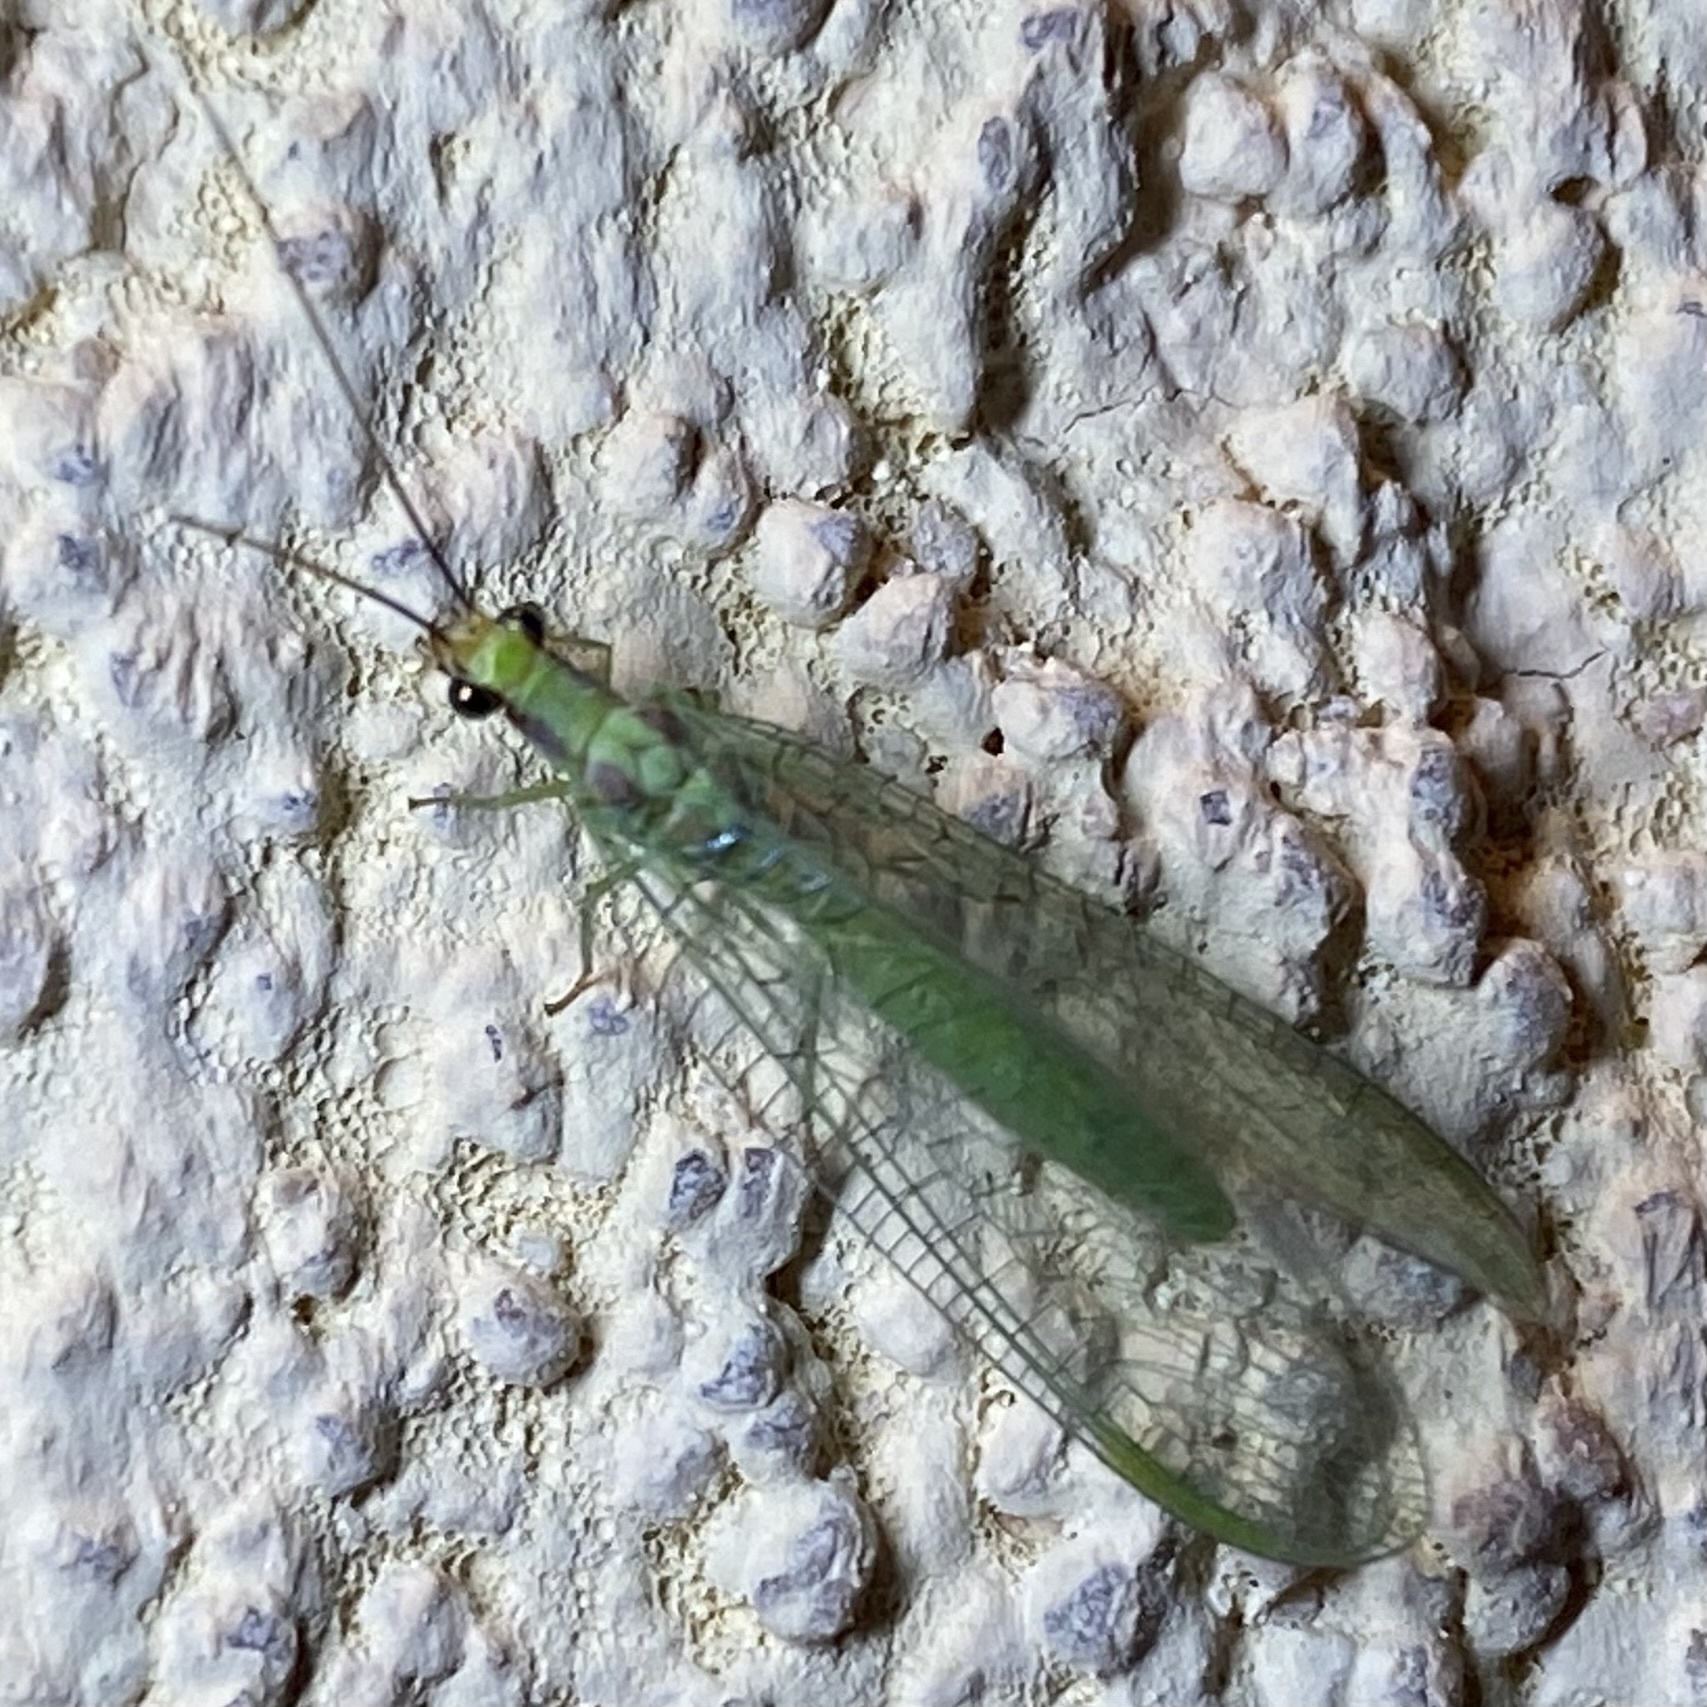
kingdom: Animalia
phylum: Arthropoda
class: Insecta
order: Neuroptera
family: Chrysopidae
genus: Chrysopa
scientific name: Chrysopa coloradensis
